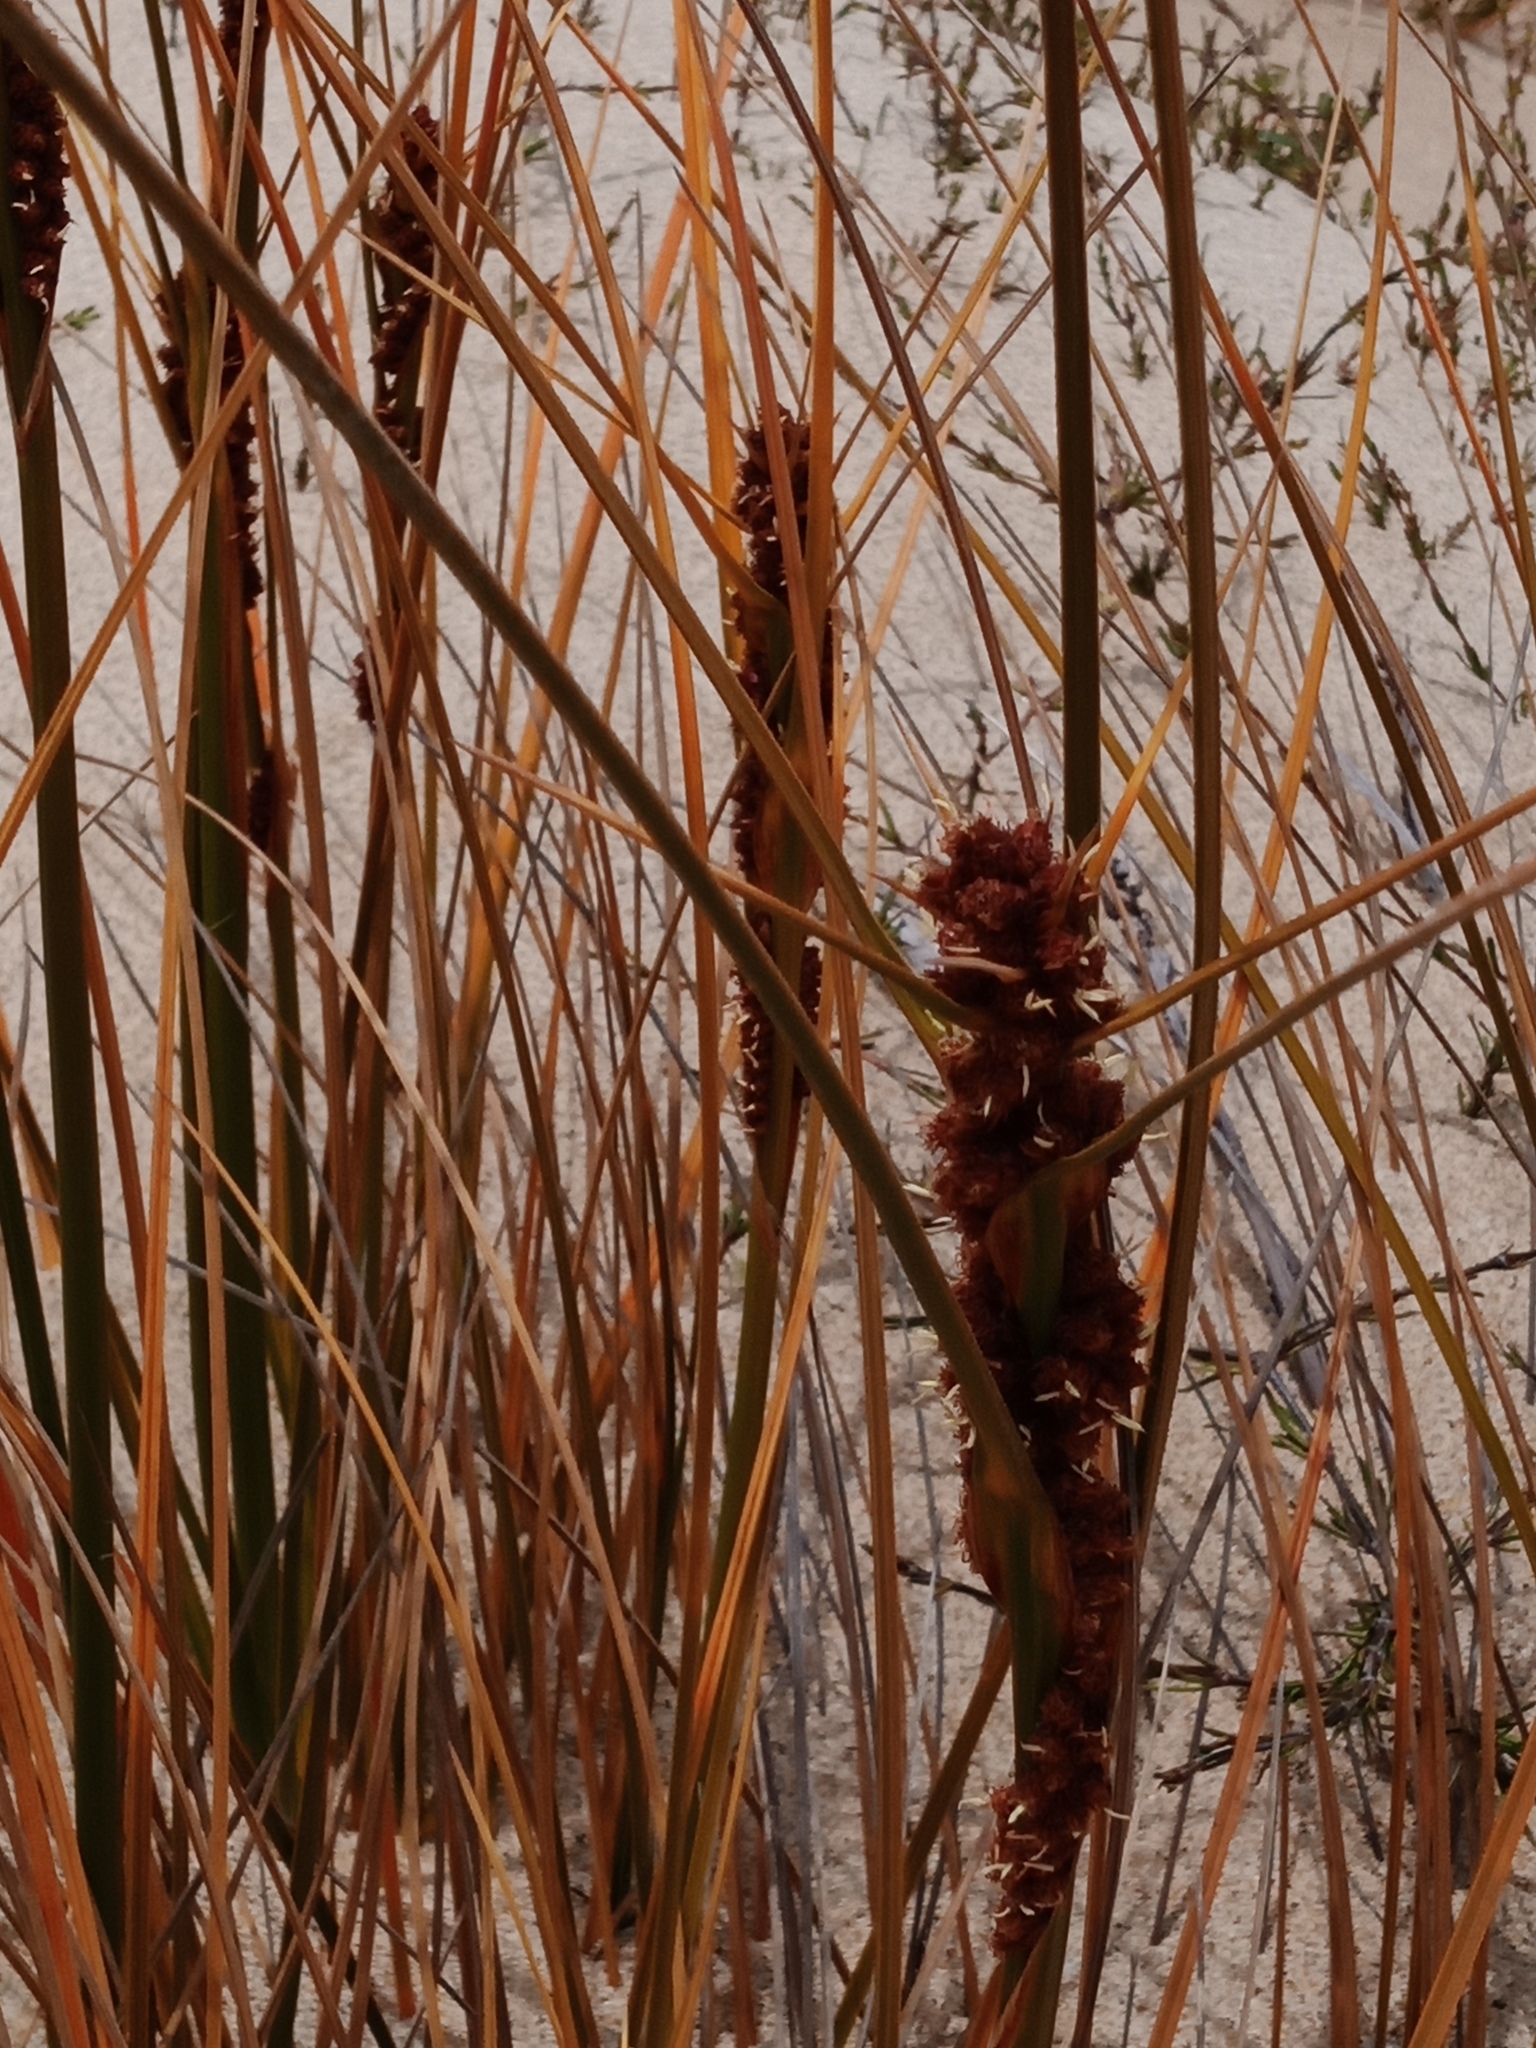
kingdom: Plantae
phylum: Tracheophyta
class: Liliopsida
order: Poales
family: Cyperaceae
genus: Ficinia
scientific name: Ficinia spiralis
